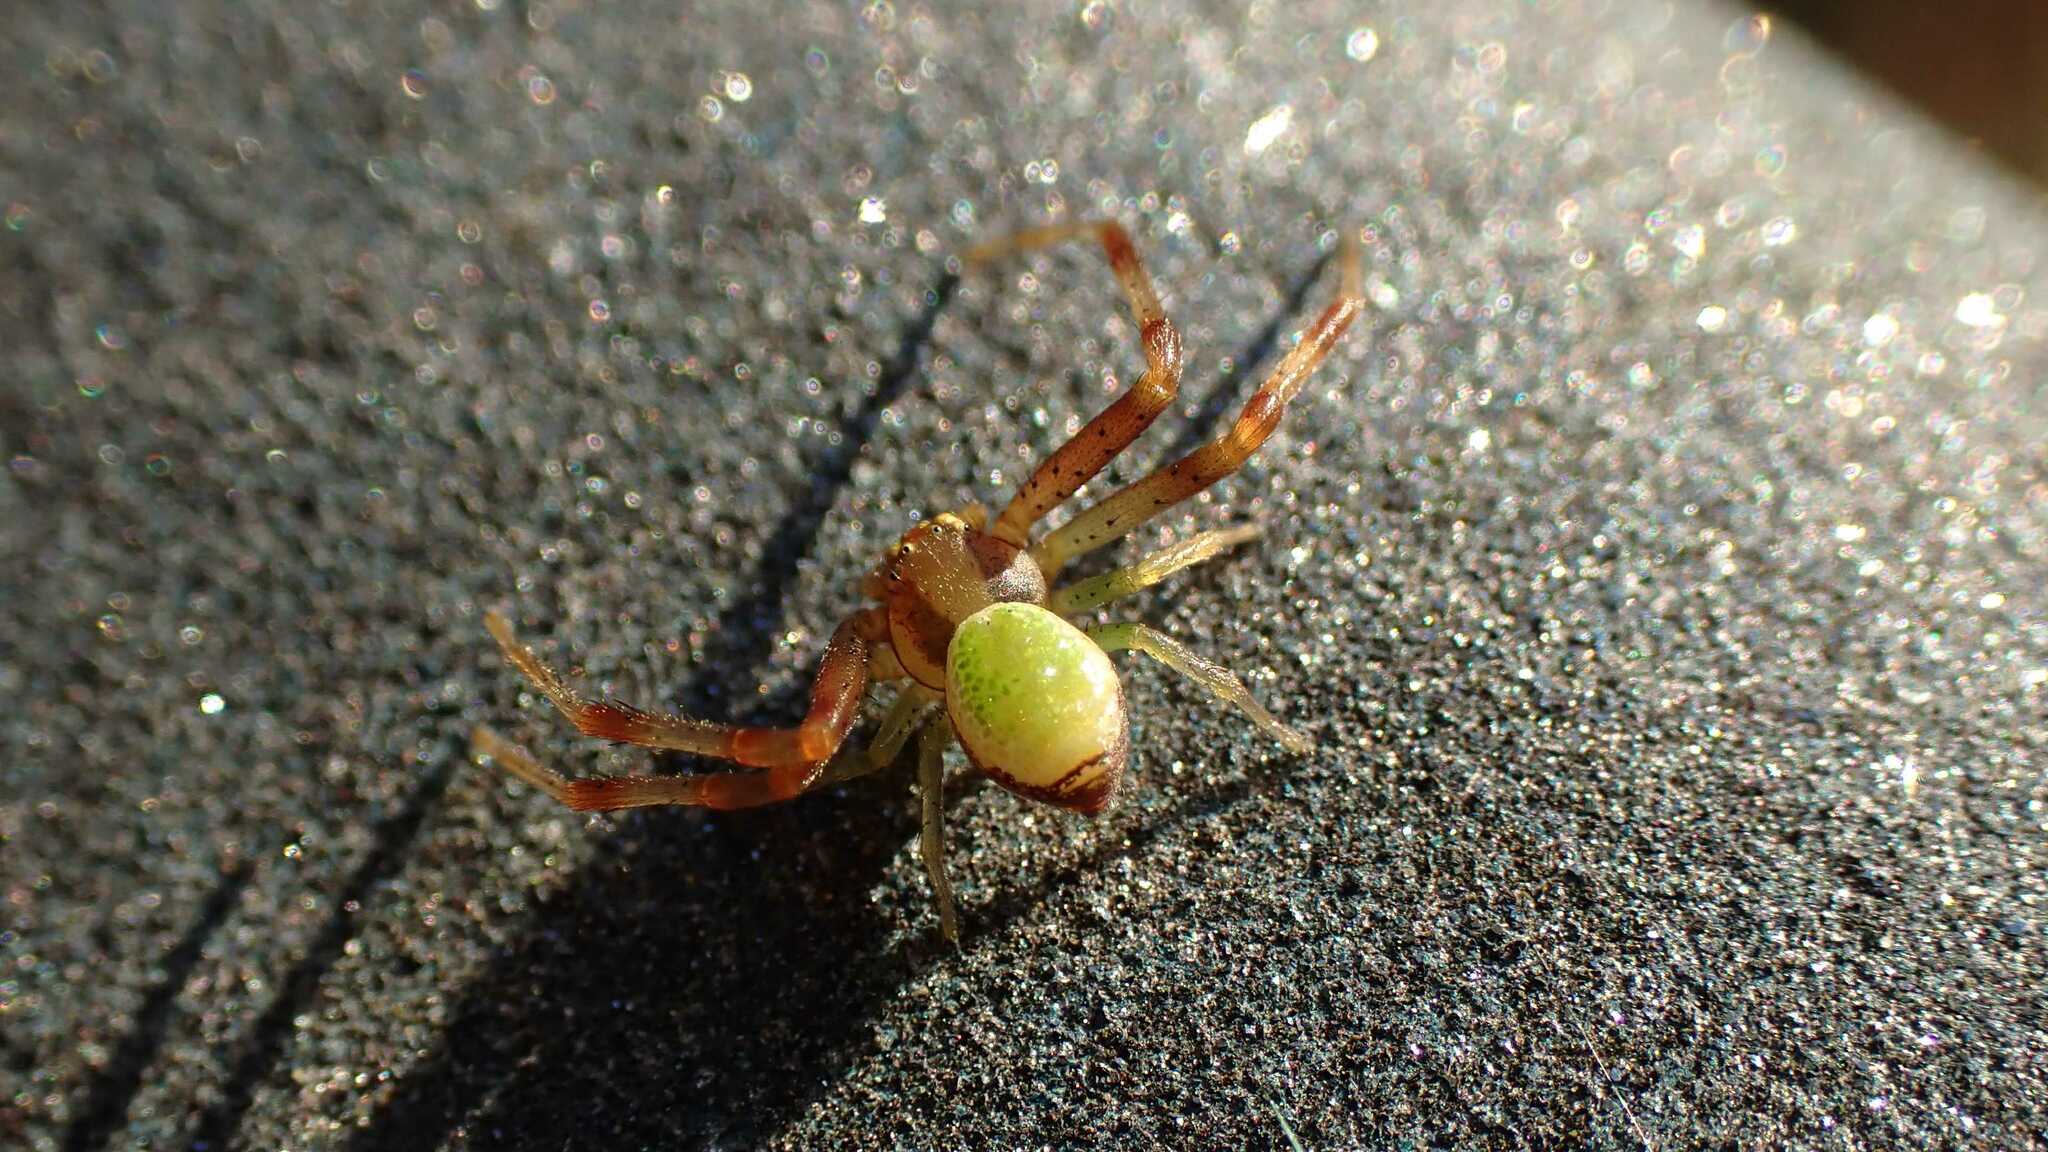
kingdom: Animalia
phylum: Arthropoda
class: Arachnida
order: Araneae
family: Thomisidae
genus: Ebrechtella
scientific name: Ebrechtella tricuspidata
